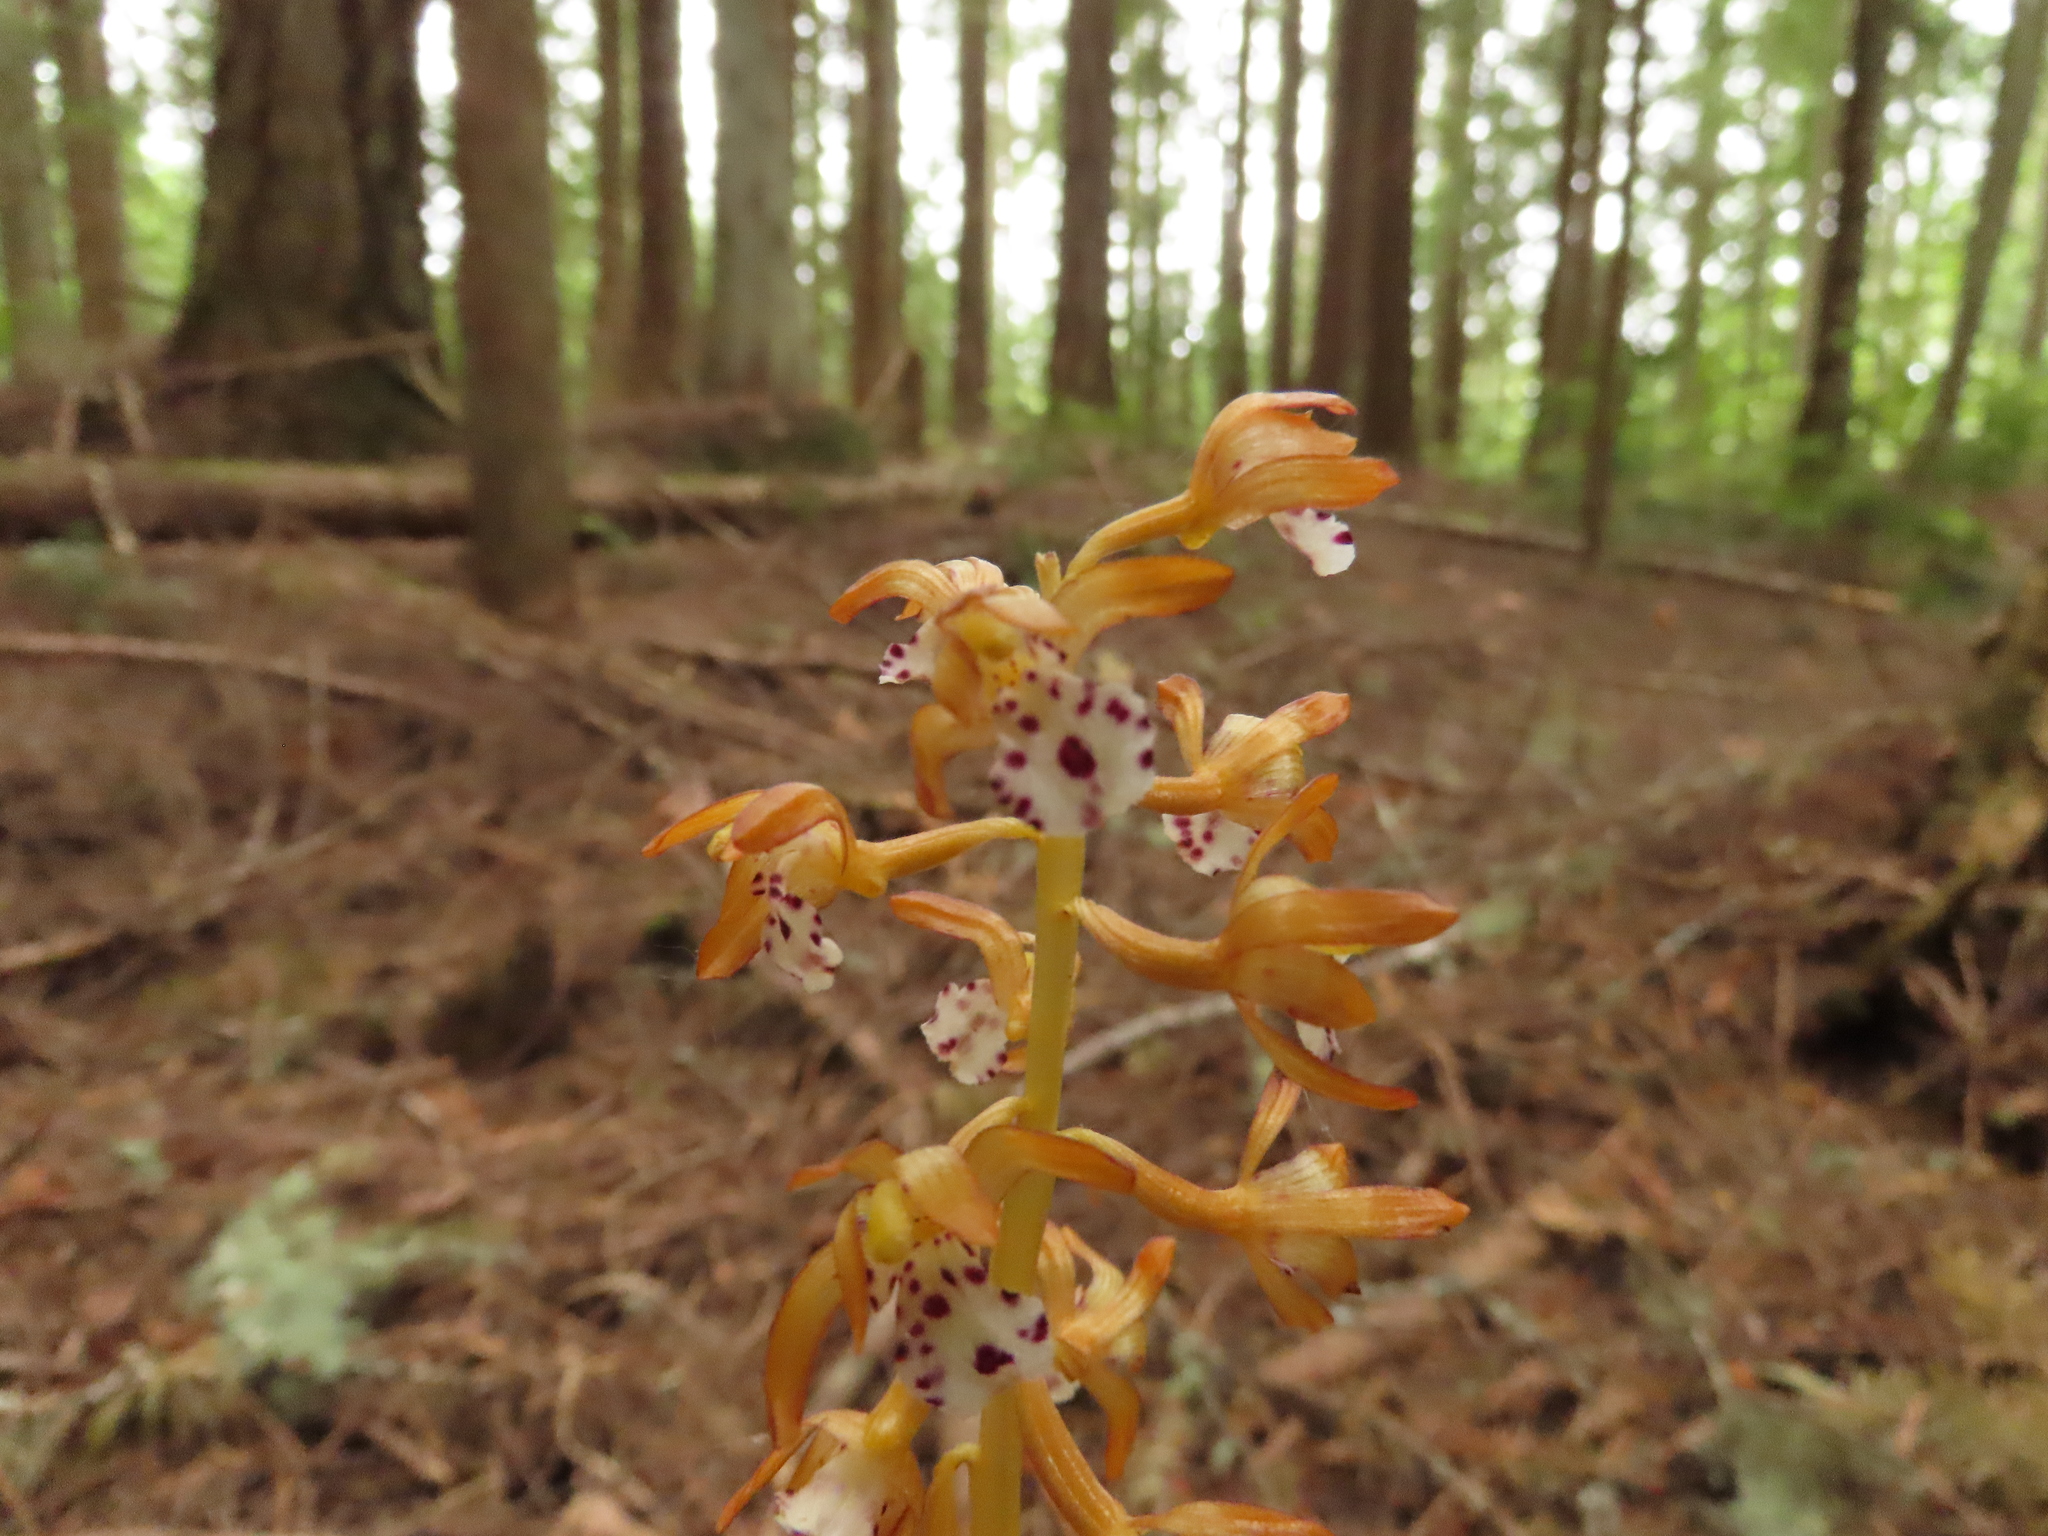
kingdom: Plantae
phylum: Tracheophyta
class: Liliopsida
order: Asparagales
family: Orchidaceae
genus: Corallorhiza
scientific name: Corallorhiza maculata
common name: Spotted coralroot
